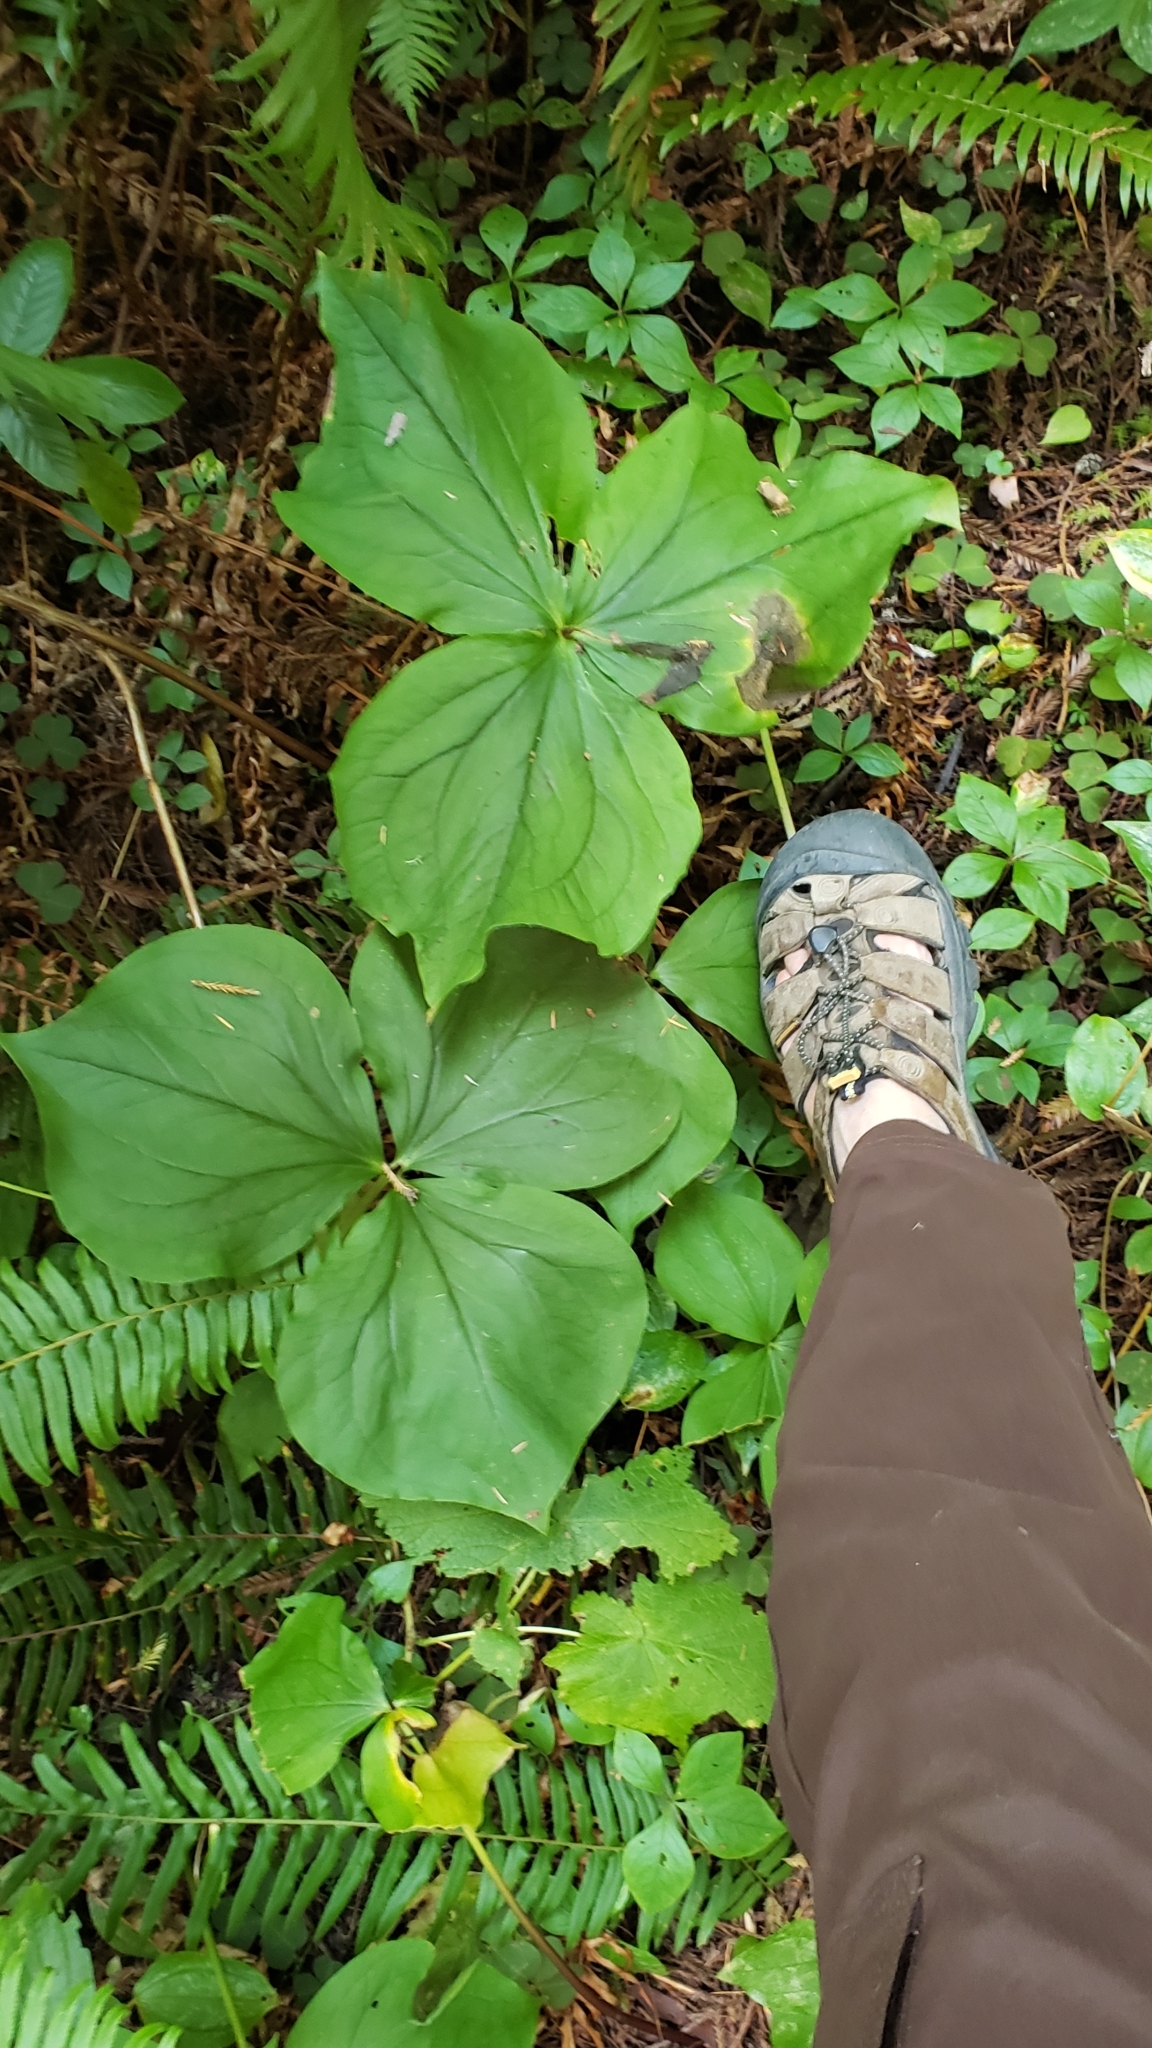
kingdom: Plantae
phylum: Tracheophyta
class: Liliopsida
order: Liliales
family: Melanthiaceae
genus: Trillium
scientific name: Trillium ovatum
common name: Pacific trillium
